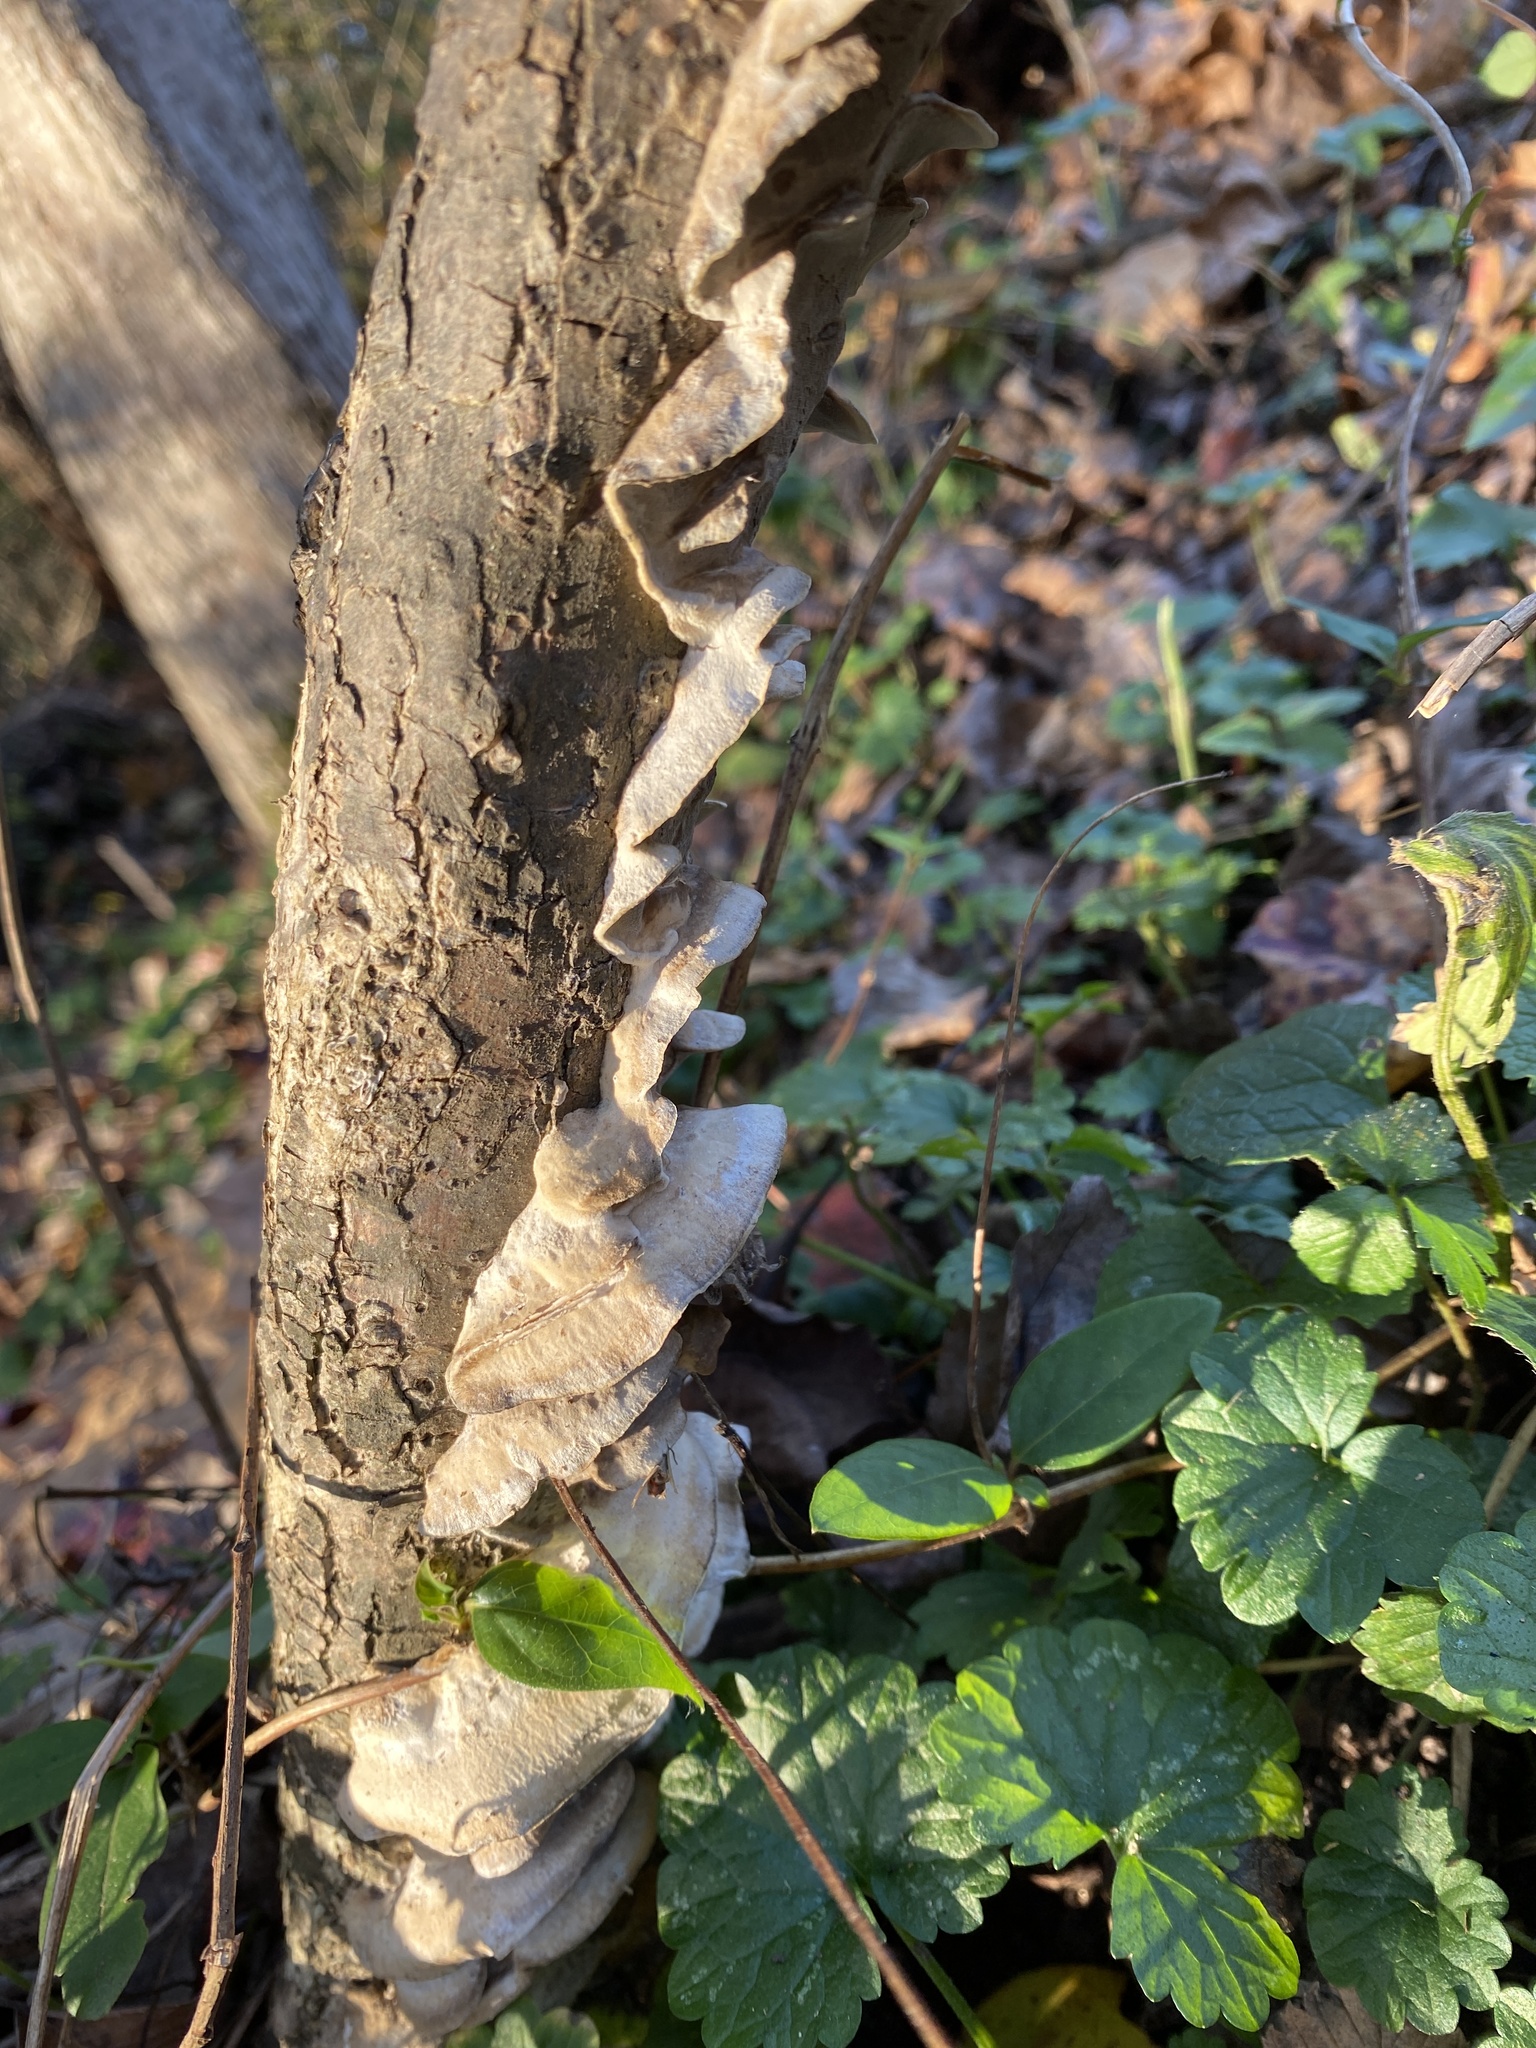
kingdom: Fungi
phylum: Basidiomycota
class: Agaricomycetes
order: Polyporales
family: Phanerochaetaceae
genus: Bjerkandera
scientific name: Bjerkandera adusta
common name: Smoky bracket
